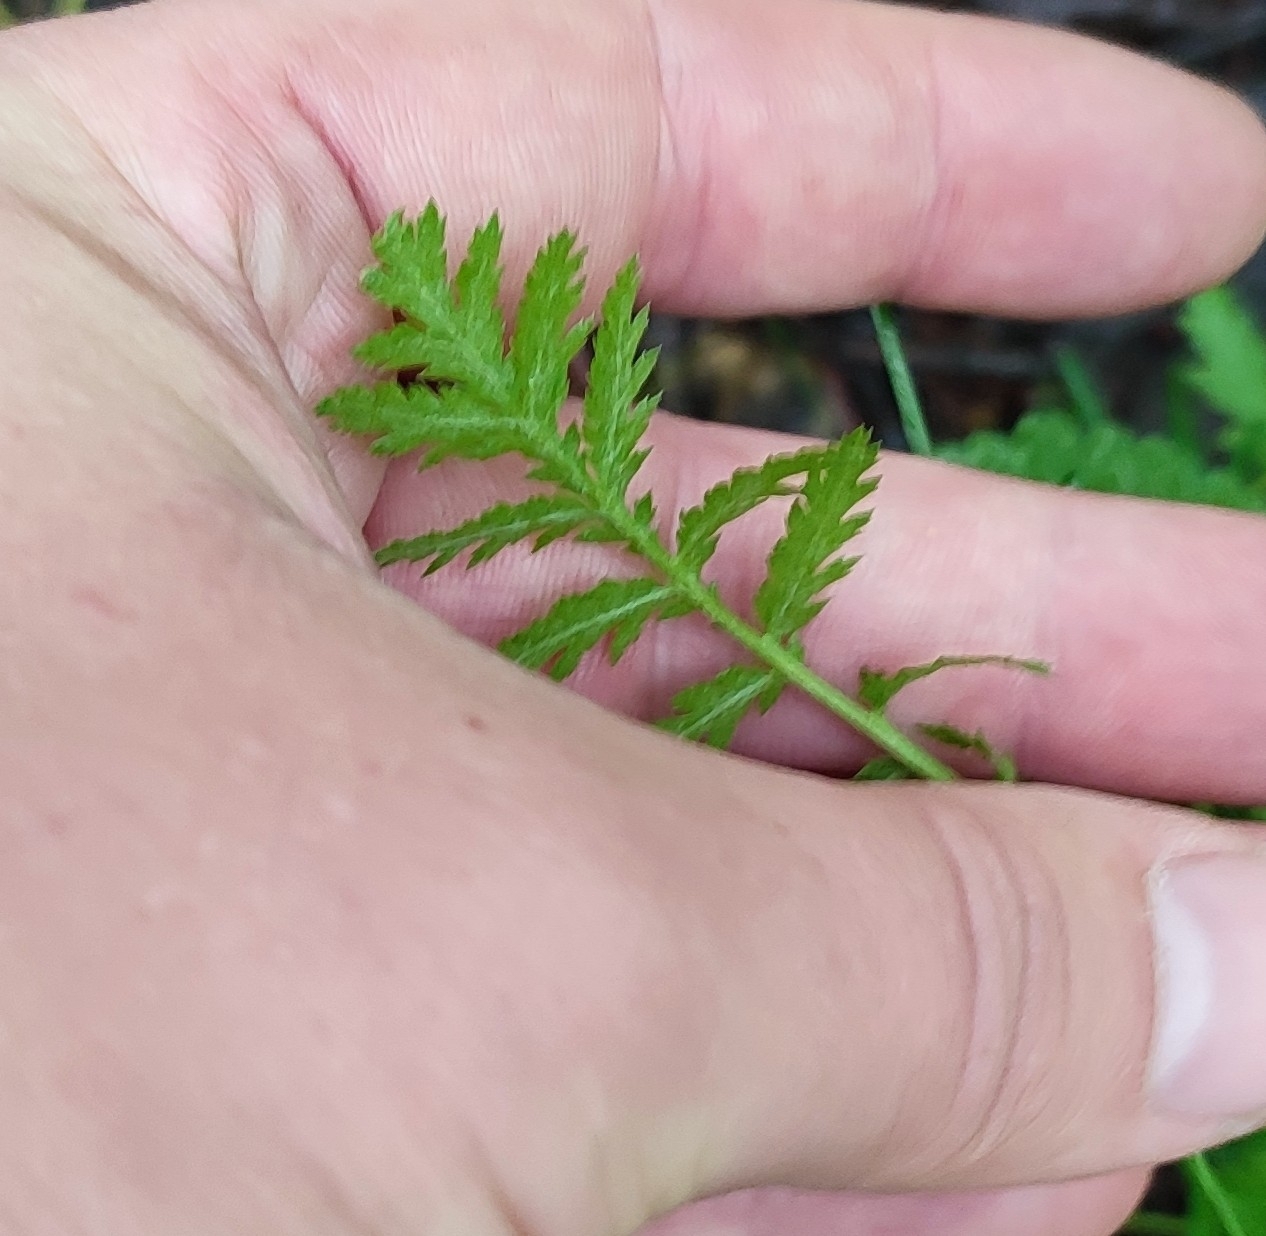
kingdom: Plantae
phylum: Tracheophyta
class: Magnoliopsida
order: Asterales
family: Asteraceae
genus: Tanacetum
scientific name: Tanacetum vulgare
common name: Common tansy
